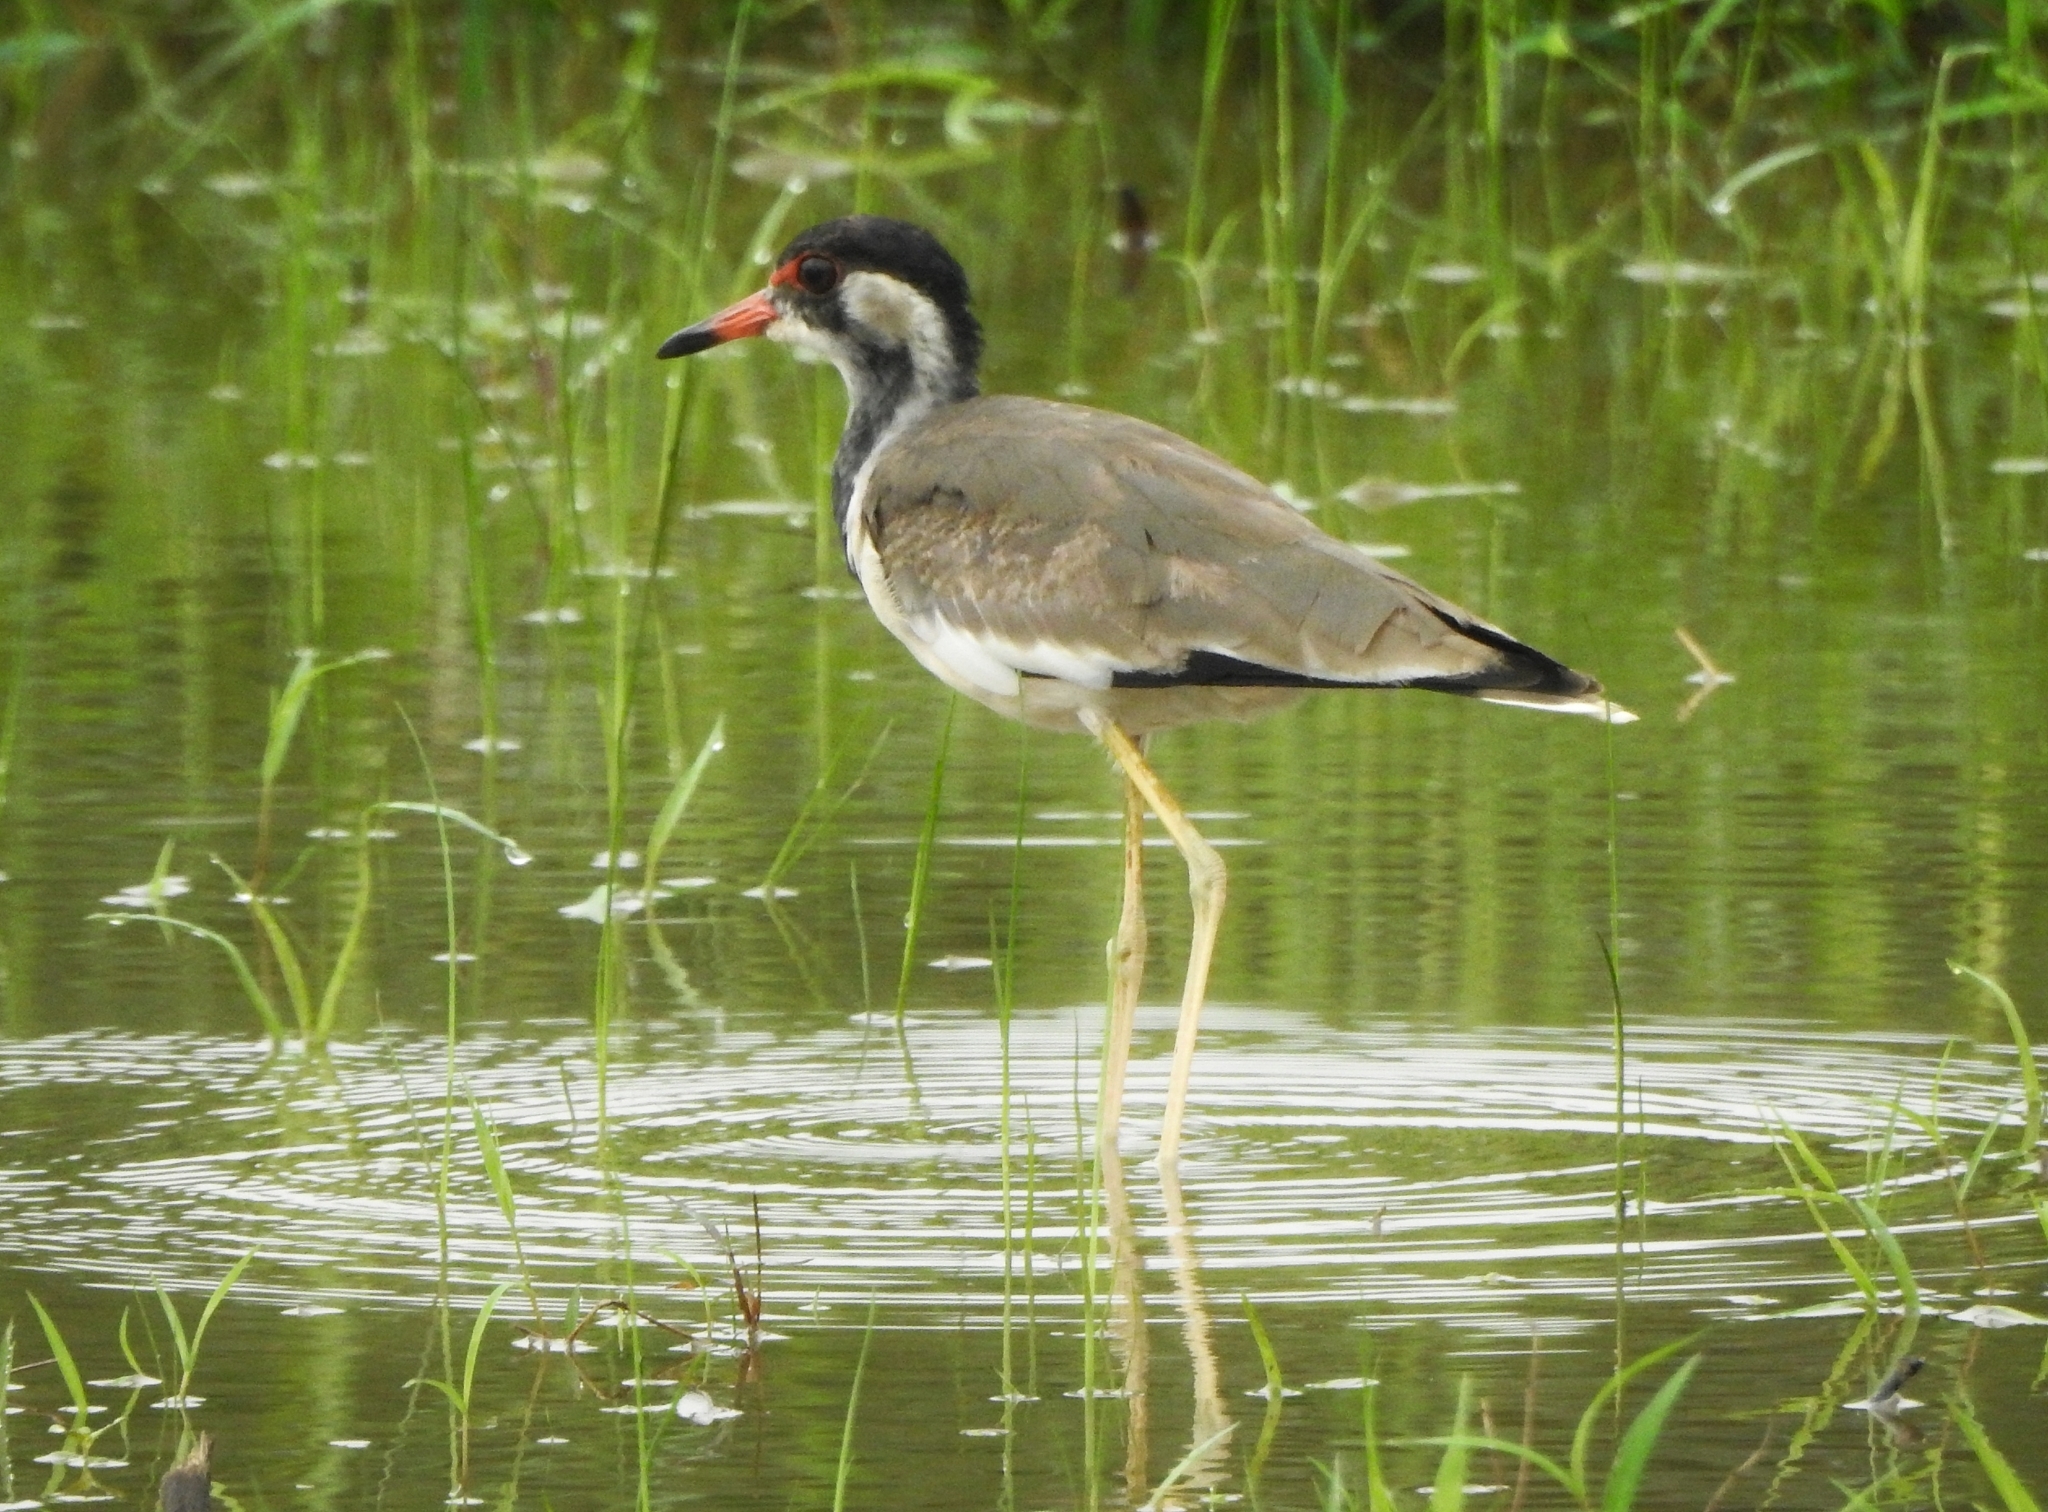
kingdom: Animalia
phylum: Chordata
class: Aves
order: Charadriiformes
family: Charadriidae
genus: Vanellus
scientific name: Vanellus indicus
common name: Red-wattled lapwing
